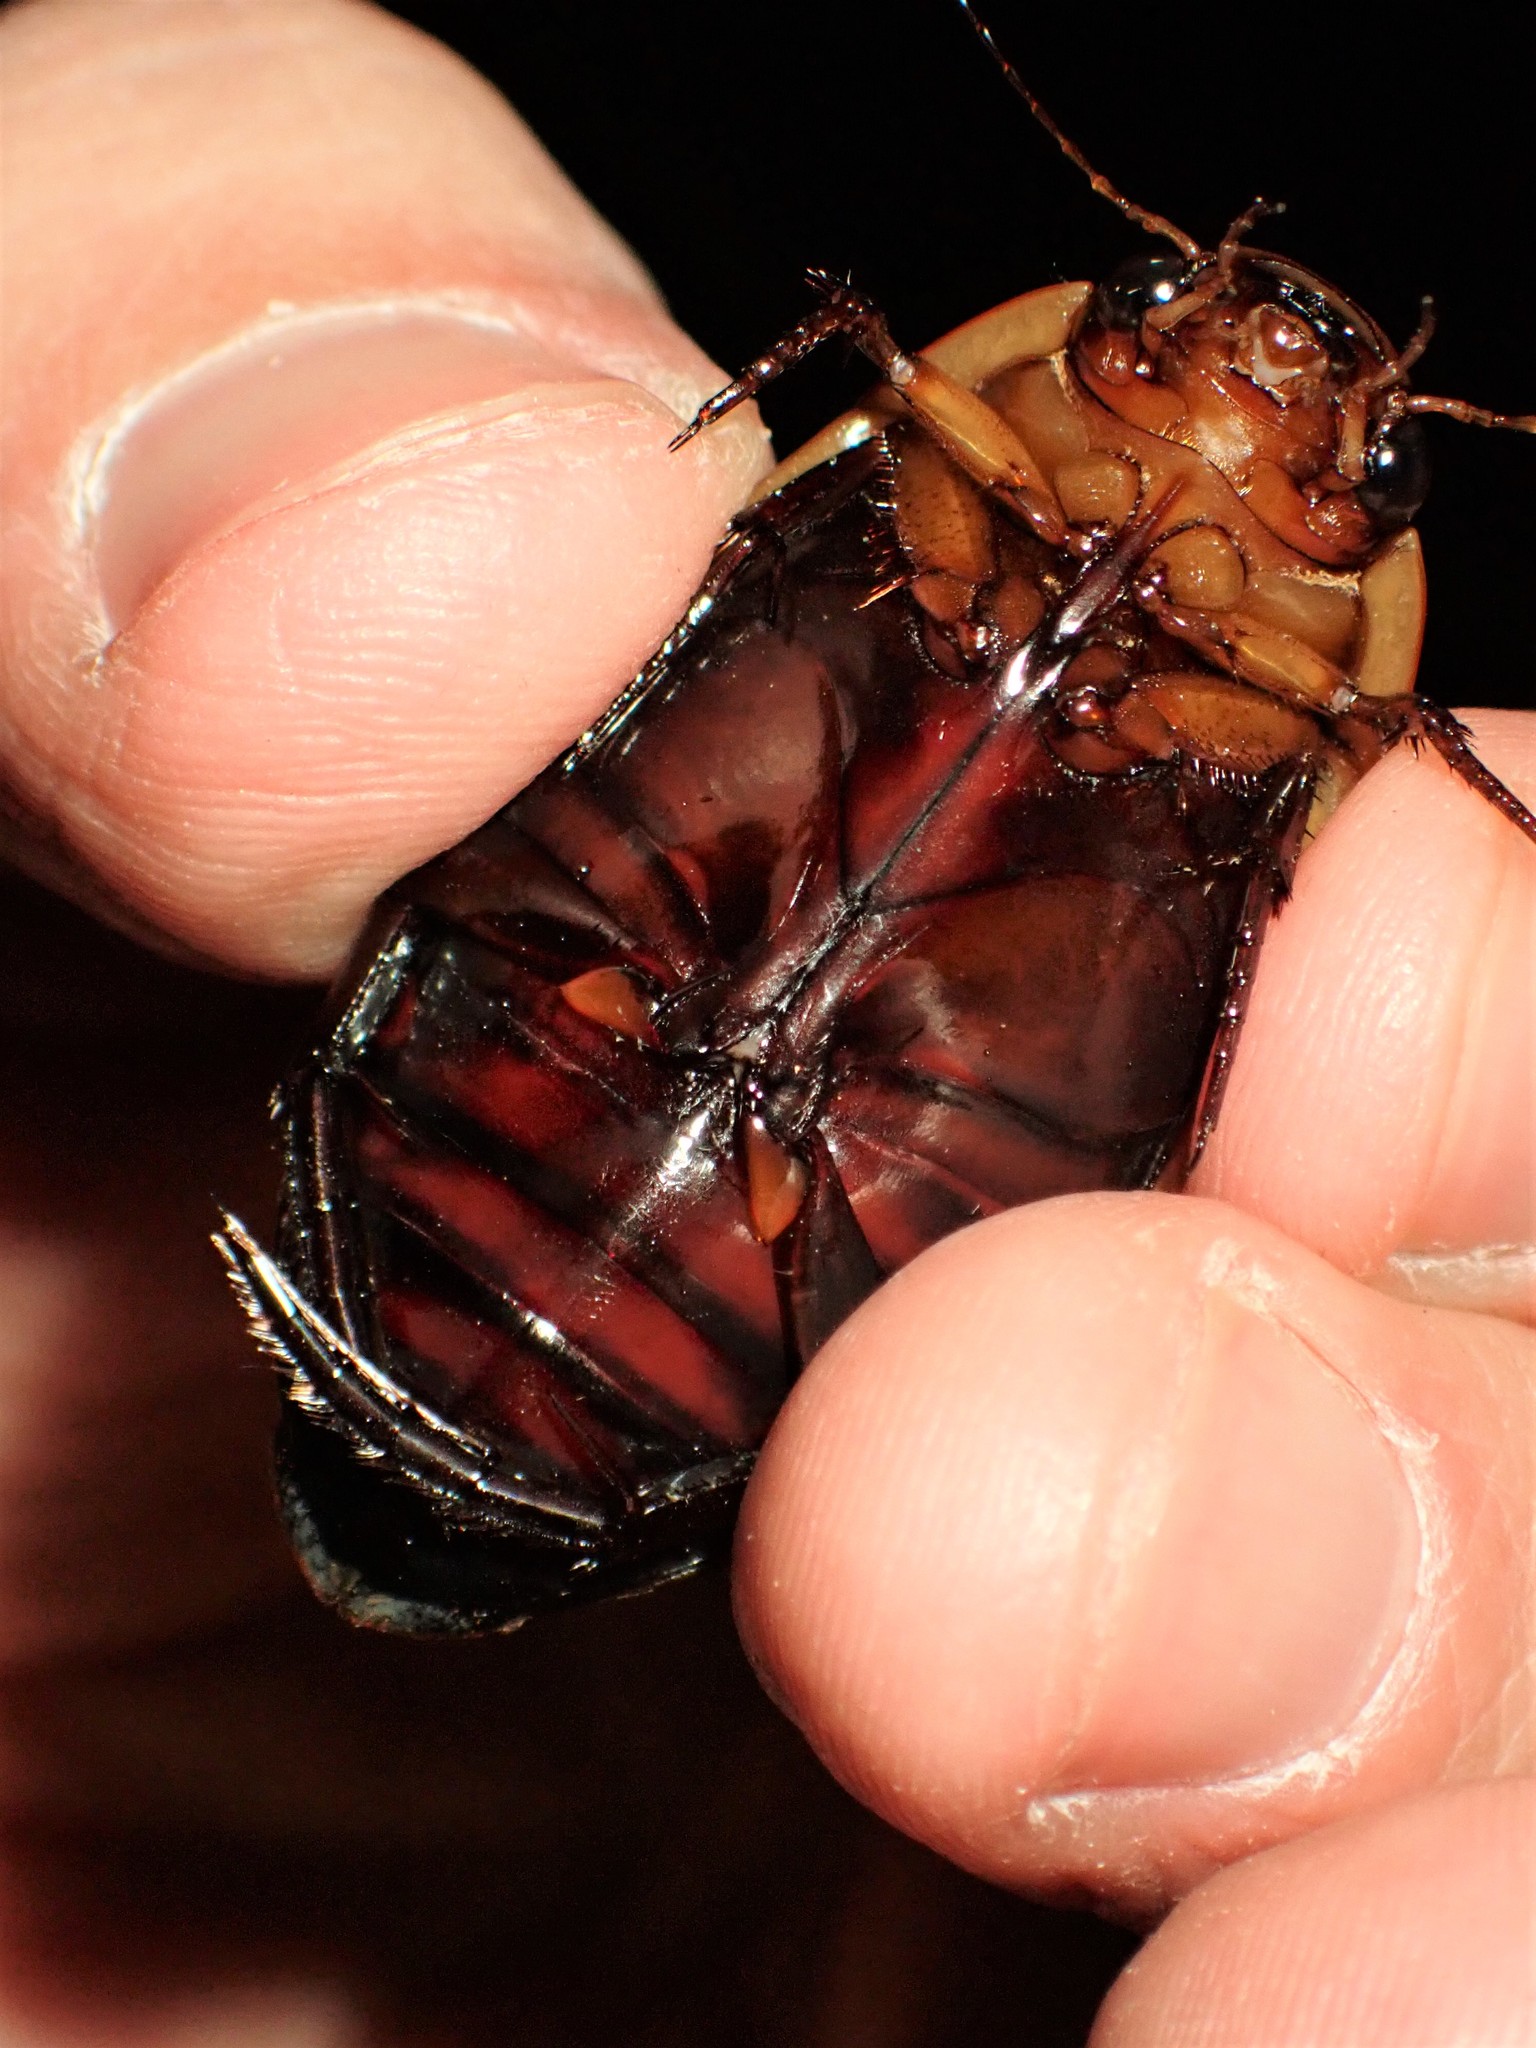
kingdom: Animalia
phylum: Arthropoda
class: Insecta
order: Coleoptera
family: Dytiscidae
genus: Dytiscus
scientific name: Dytiscus verticalis
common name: Vertical diving beetle
